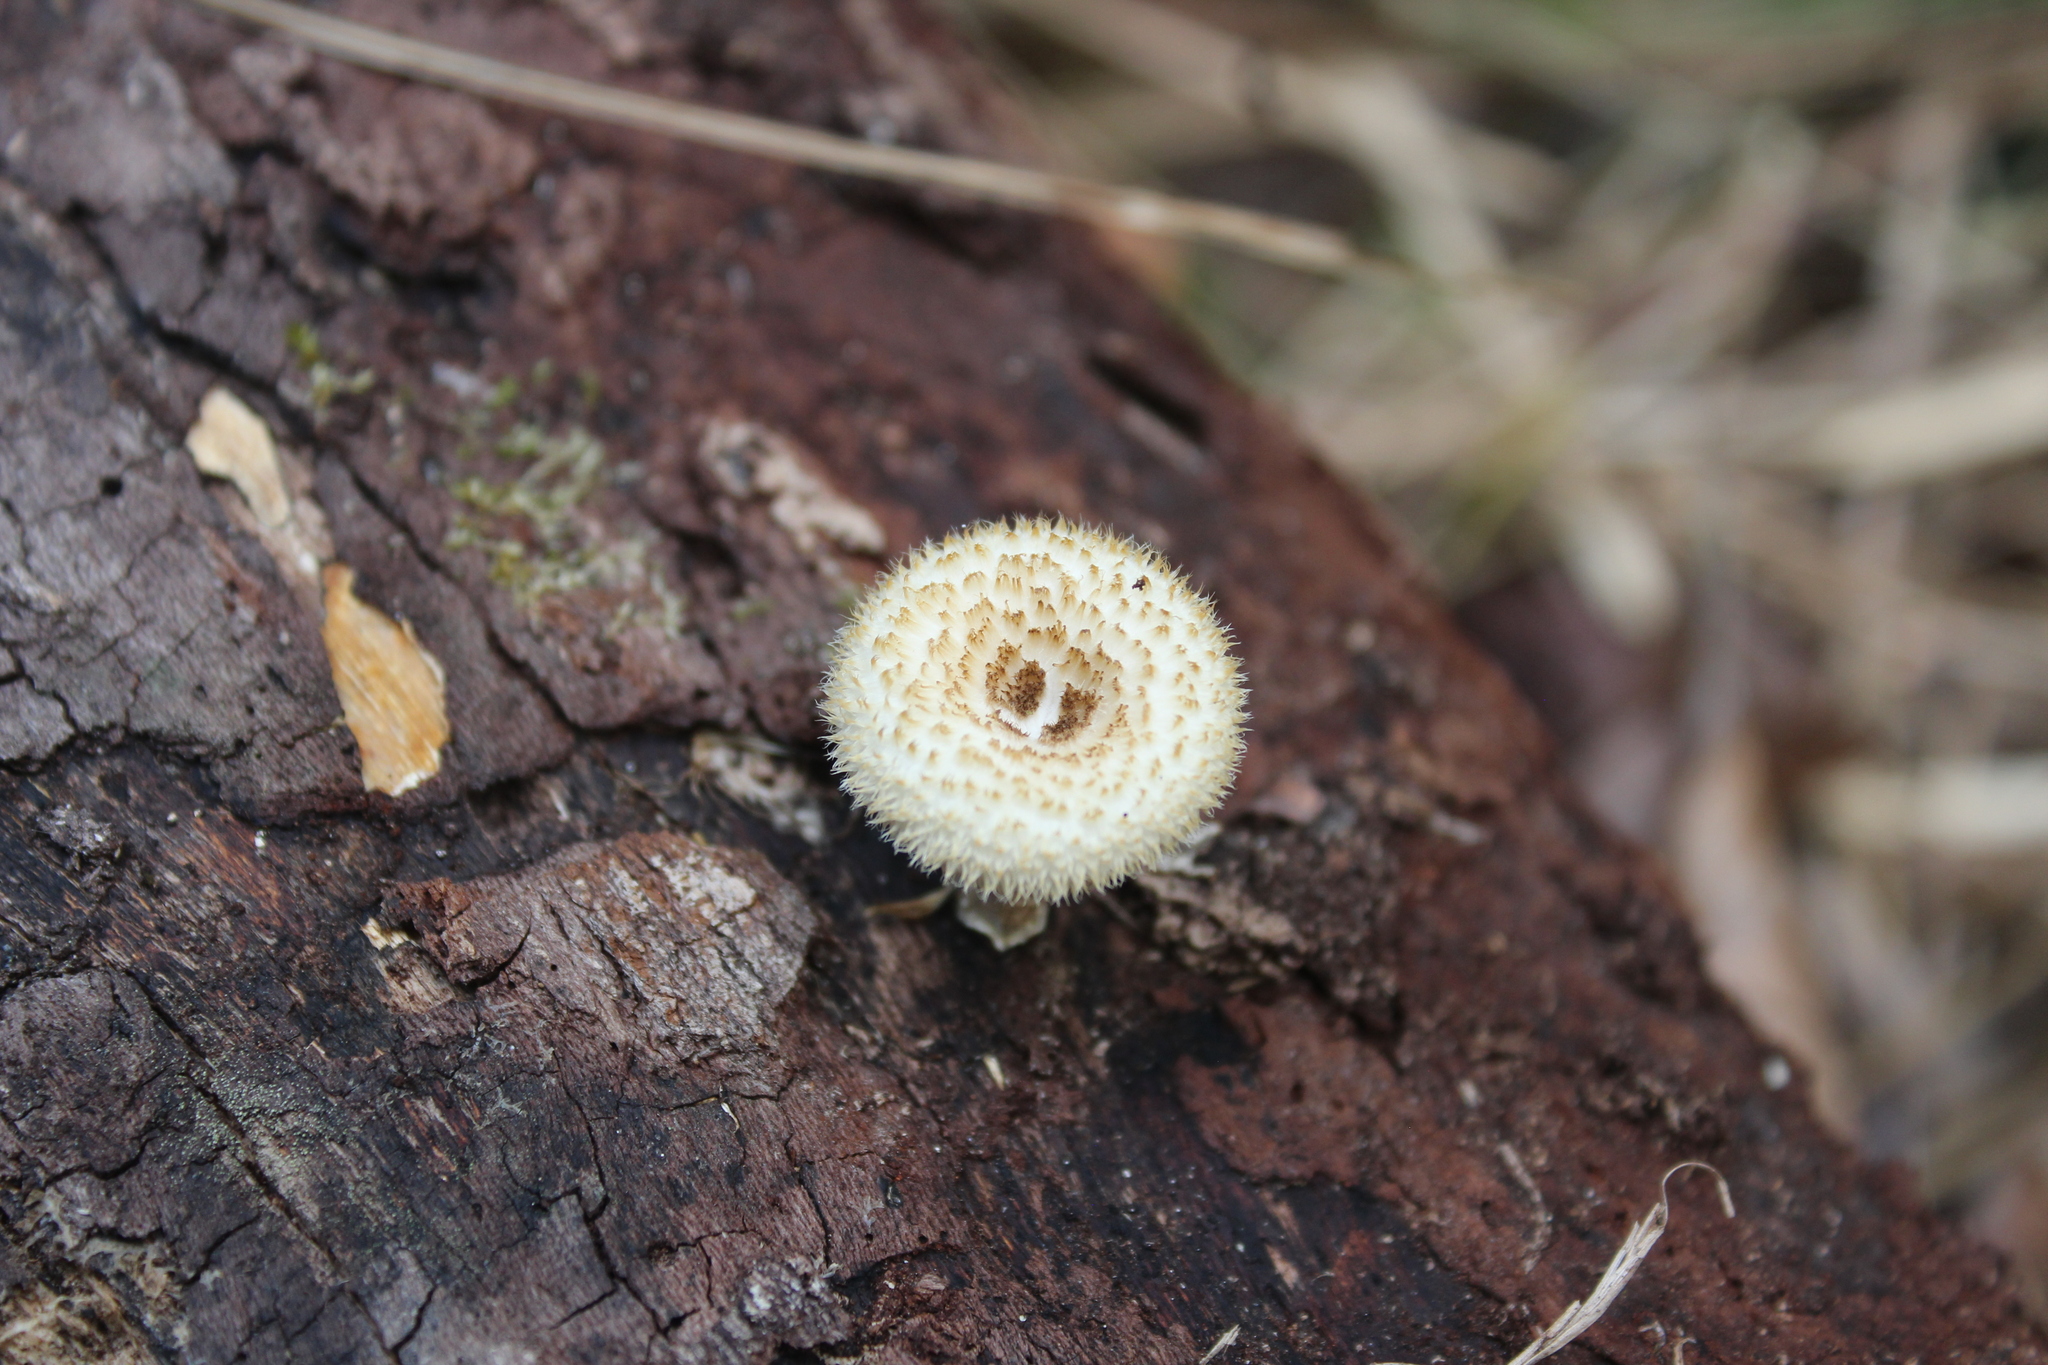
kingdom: Fungi
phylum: Basidiomycota
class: Agaricomycetes
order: Polyporales
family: Polyporaceae
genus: Lentinus
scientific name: Lentinus crinitus
